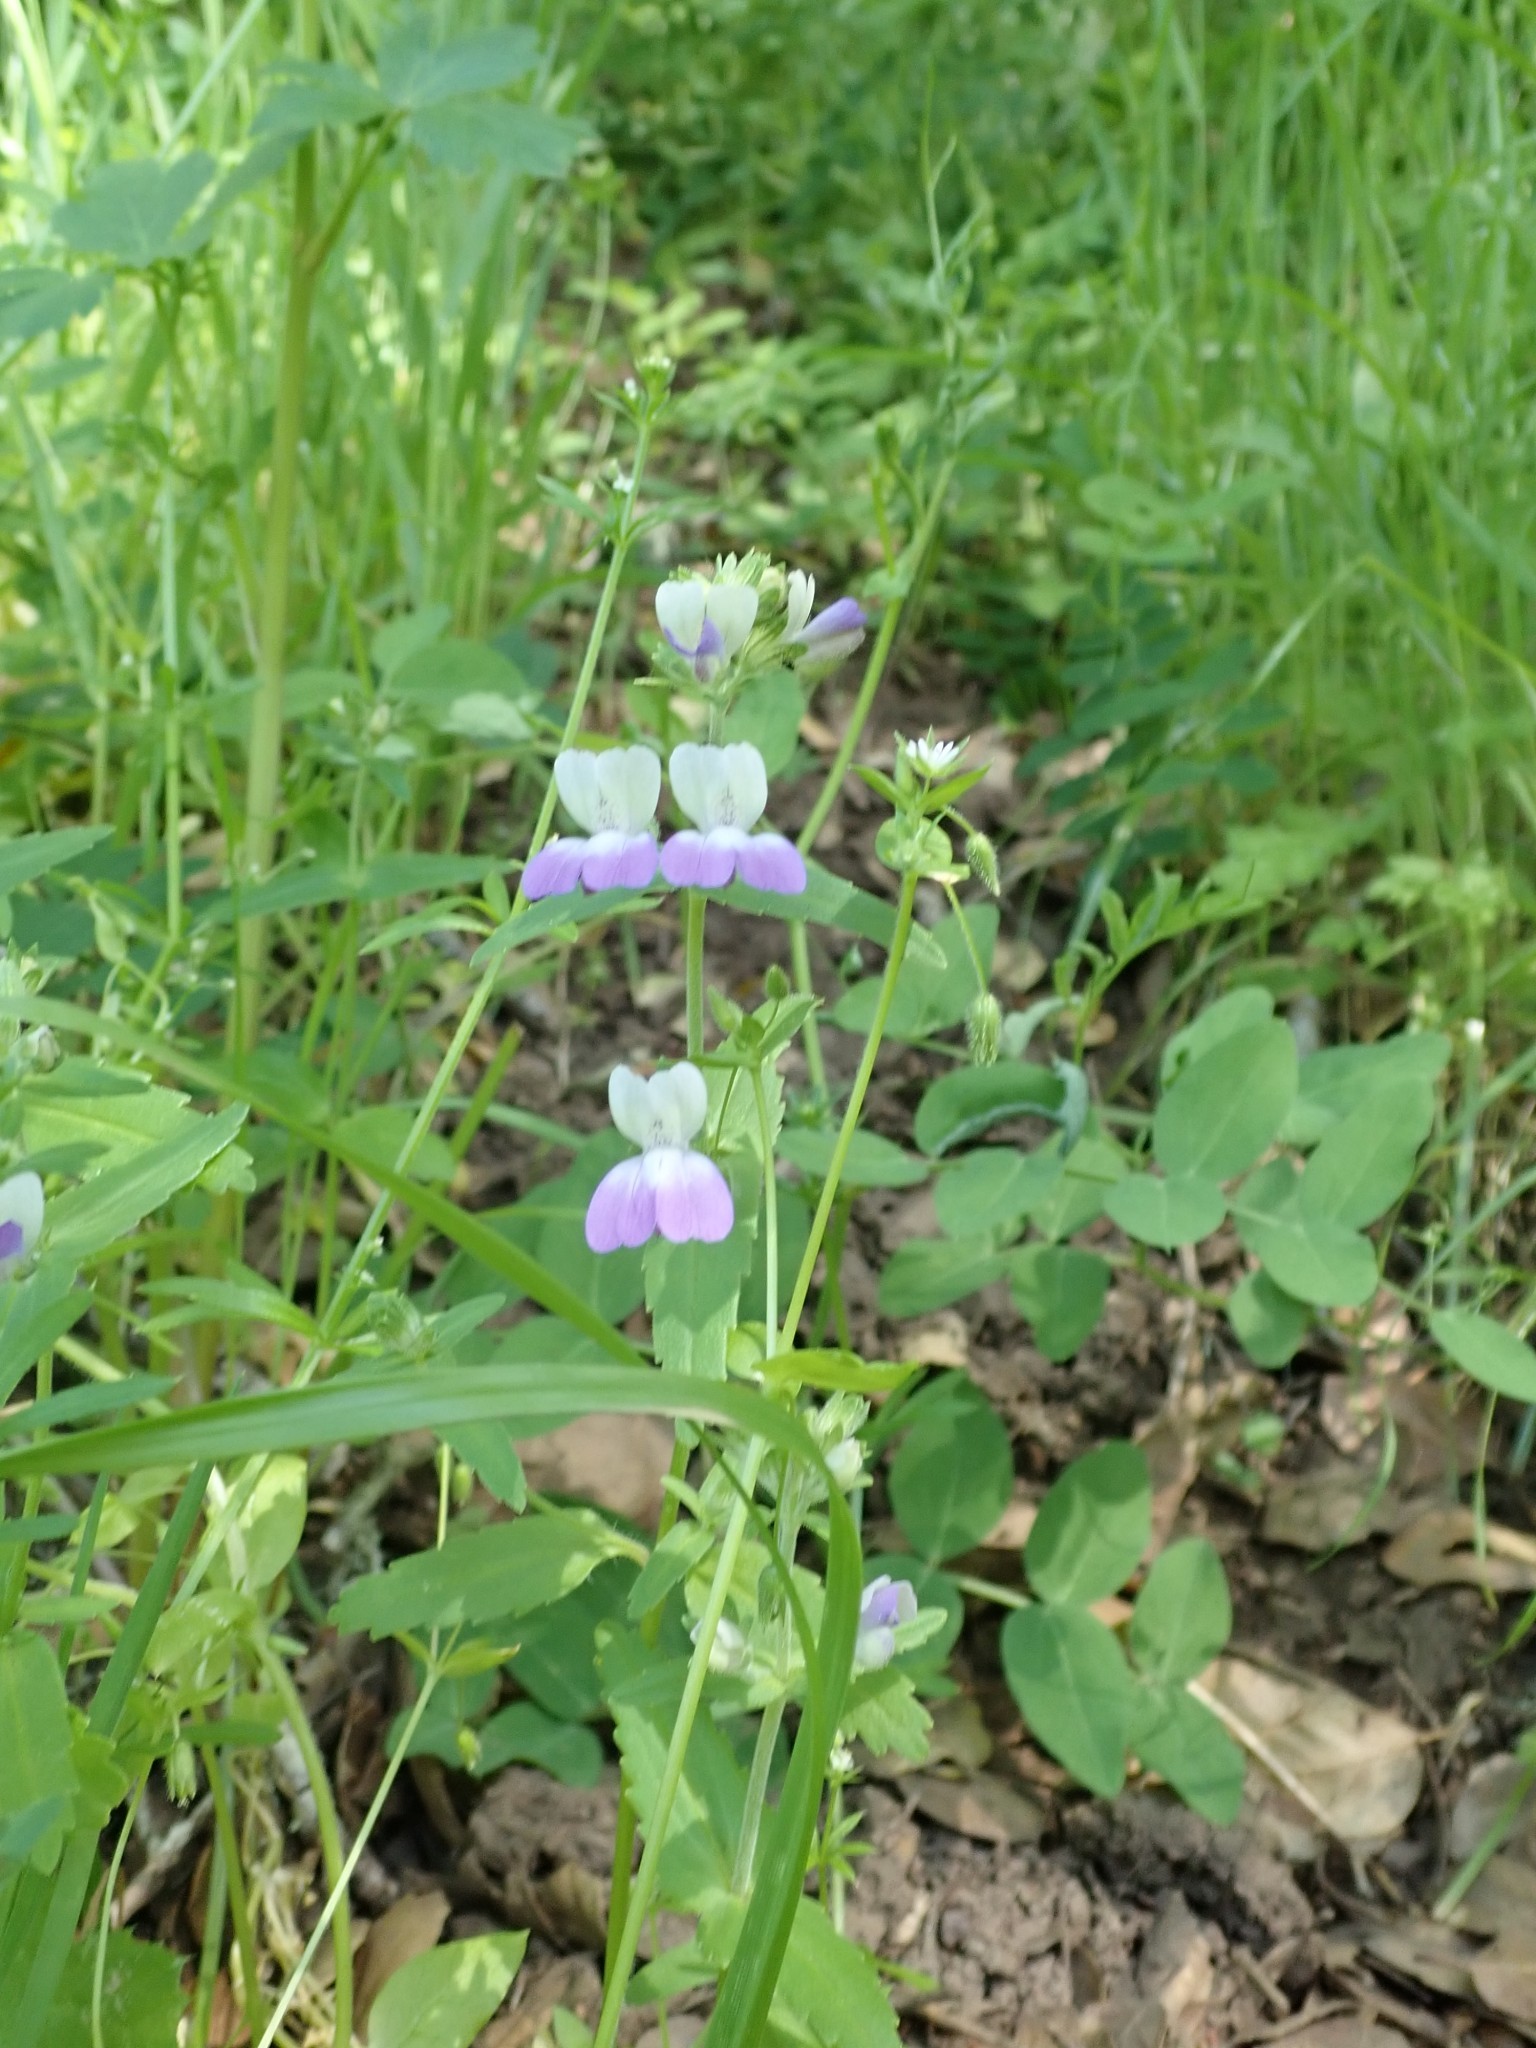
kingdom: Plantae
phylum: Tracheophyta
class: Magnoliopsida
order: Lamiales
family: Plantaginaceae
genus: Collinsia
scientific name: Collinsia multicolor
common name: San francisco collinsia
